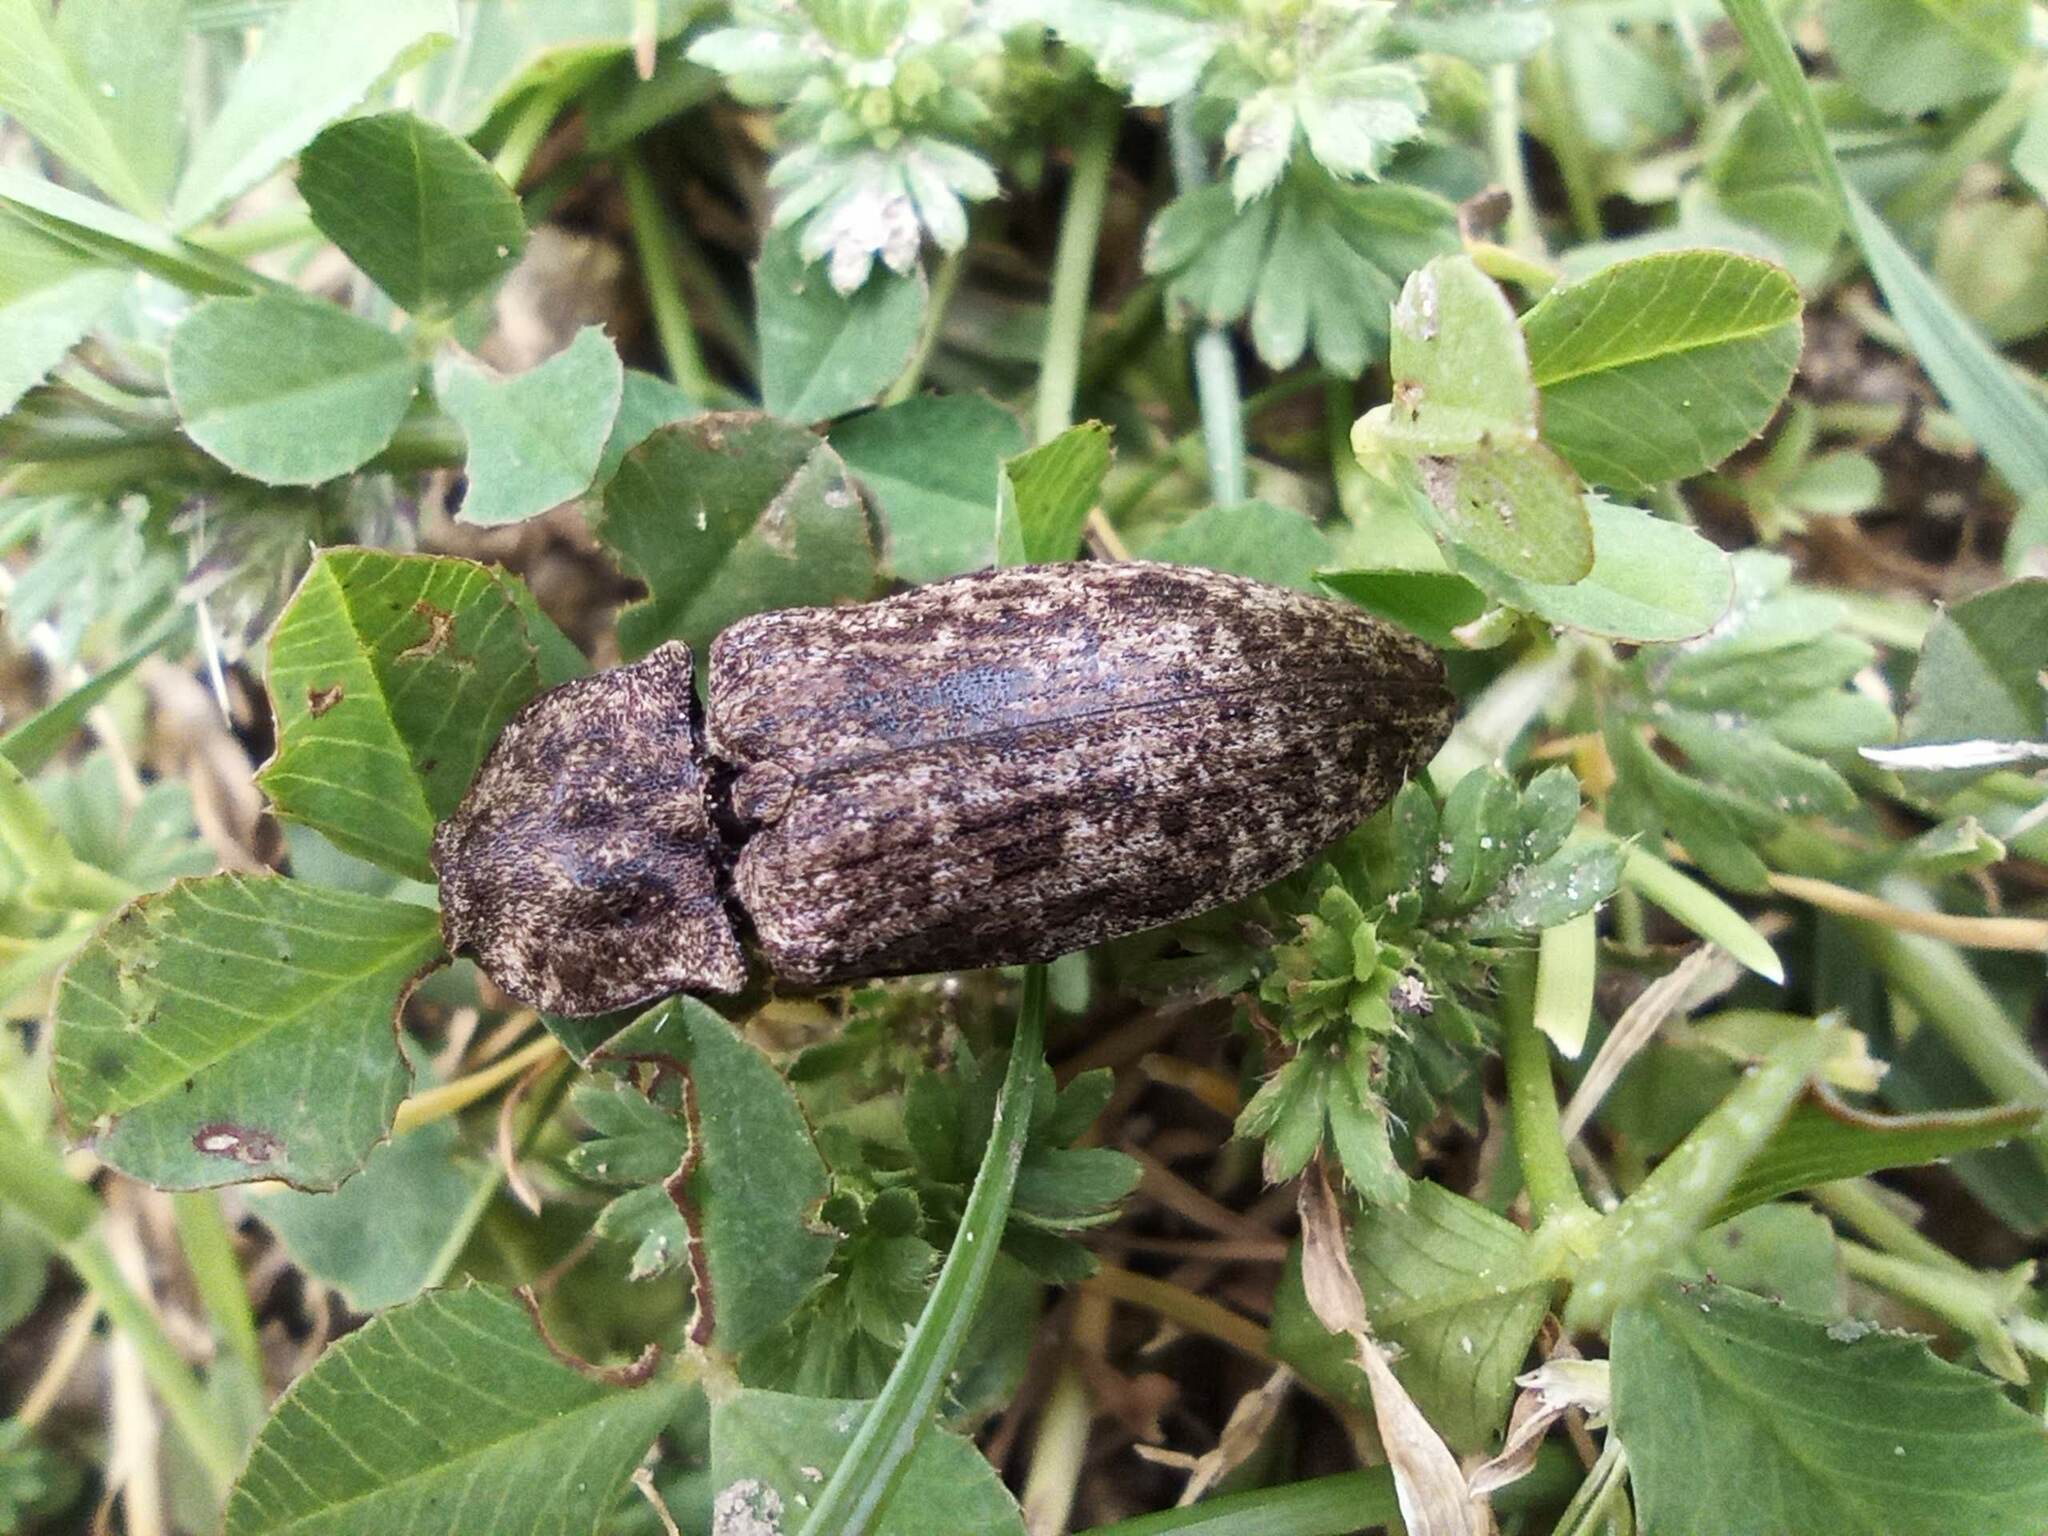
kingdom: Animalia
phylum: Arthropoda
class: Insecta
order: Coleoptera
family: Elateridae
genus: Agrypnus
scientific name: Agrypnus murinus
